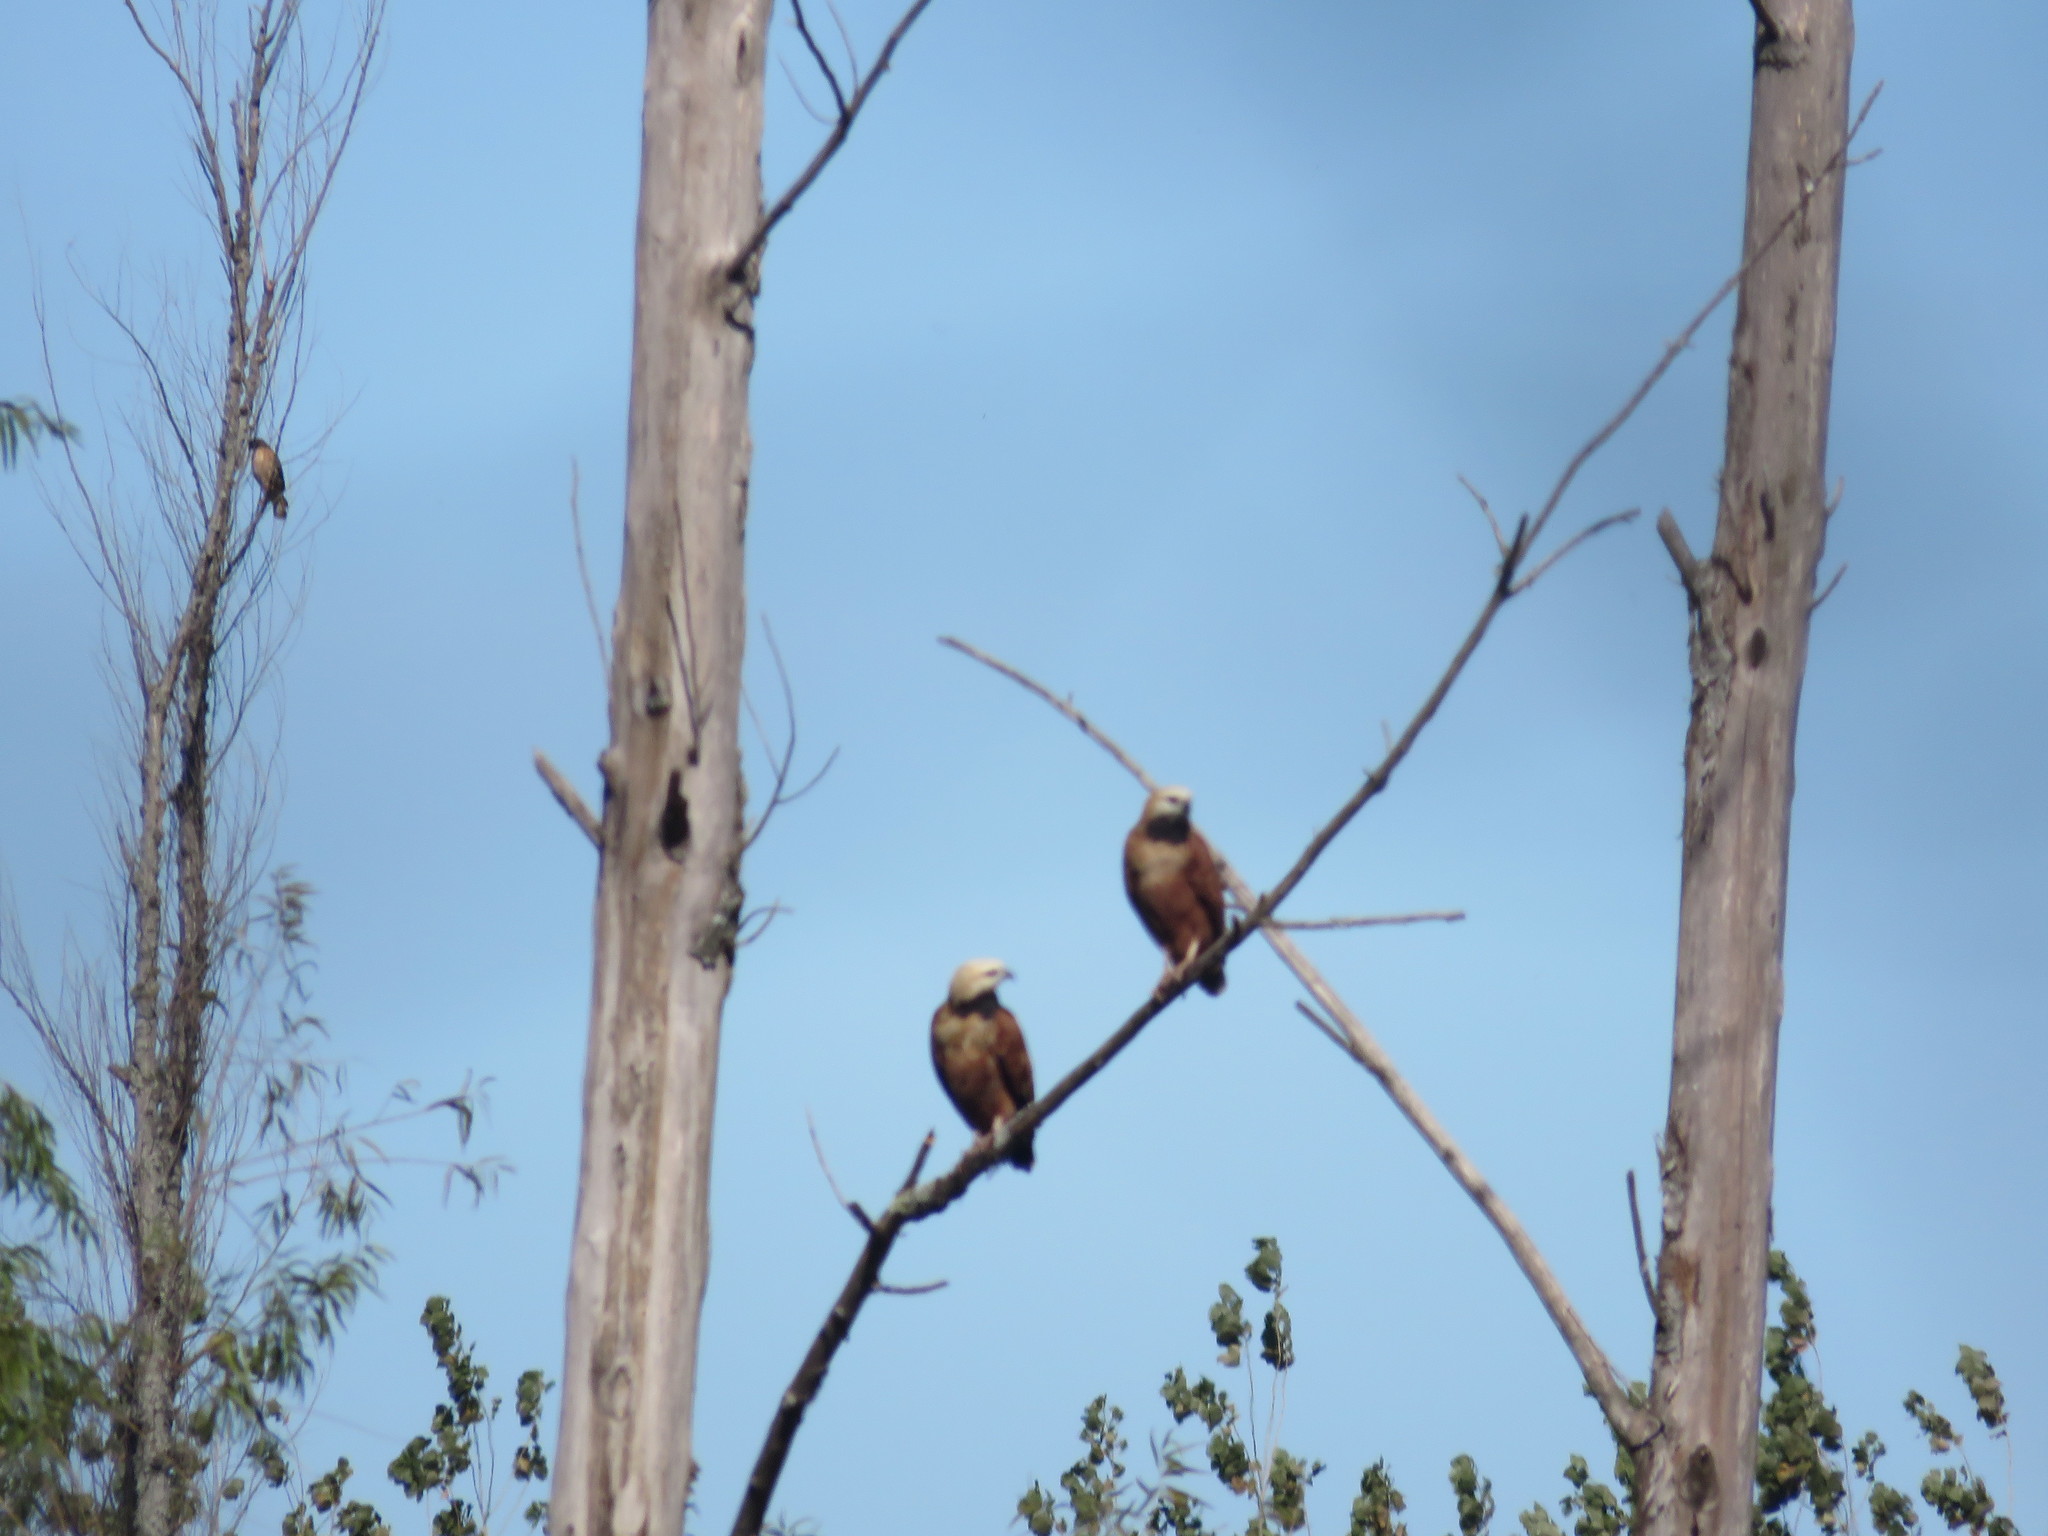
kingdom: Animalia
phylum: Chordata
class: Aves
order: Accipitriformes
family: Accipitridae
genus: Busarellus
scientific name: Busarellus nigricollis
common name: Black-collared hawk
